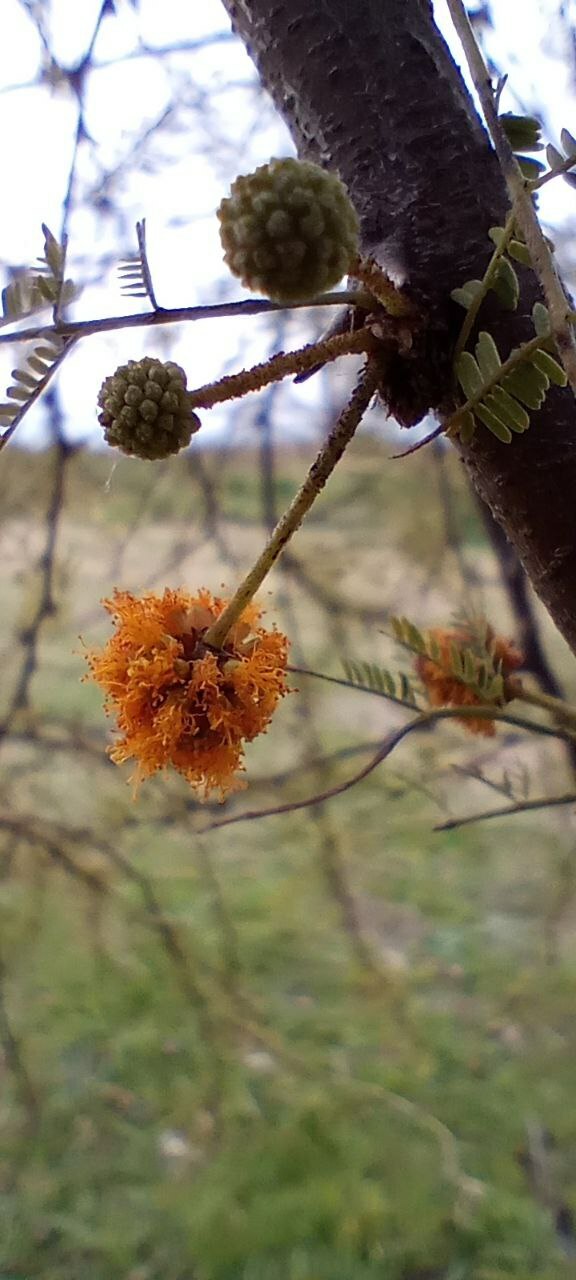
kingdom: Plantae
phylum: Tracheophyta
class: Magnoliopsida
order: Fabales
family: Fabaceae
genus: Vachellia
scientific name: Vachellia caven
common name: Roman cassie
